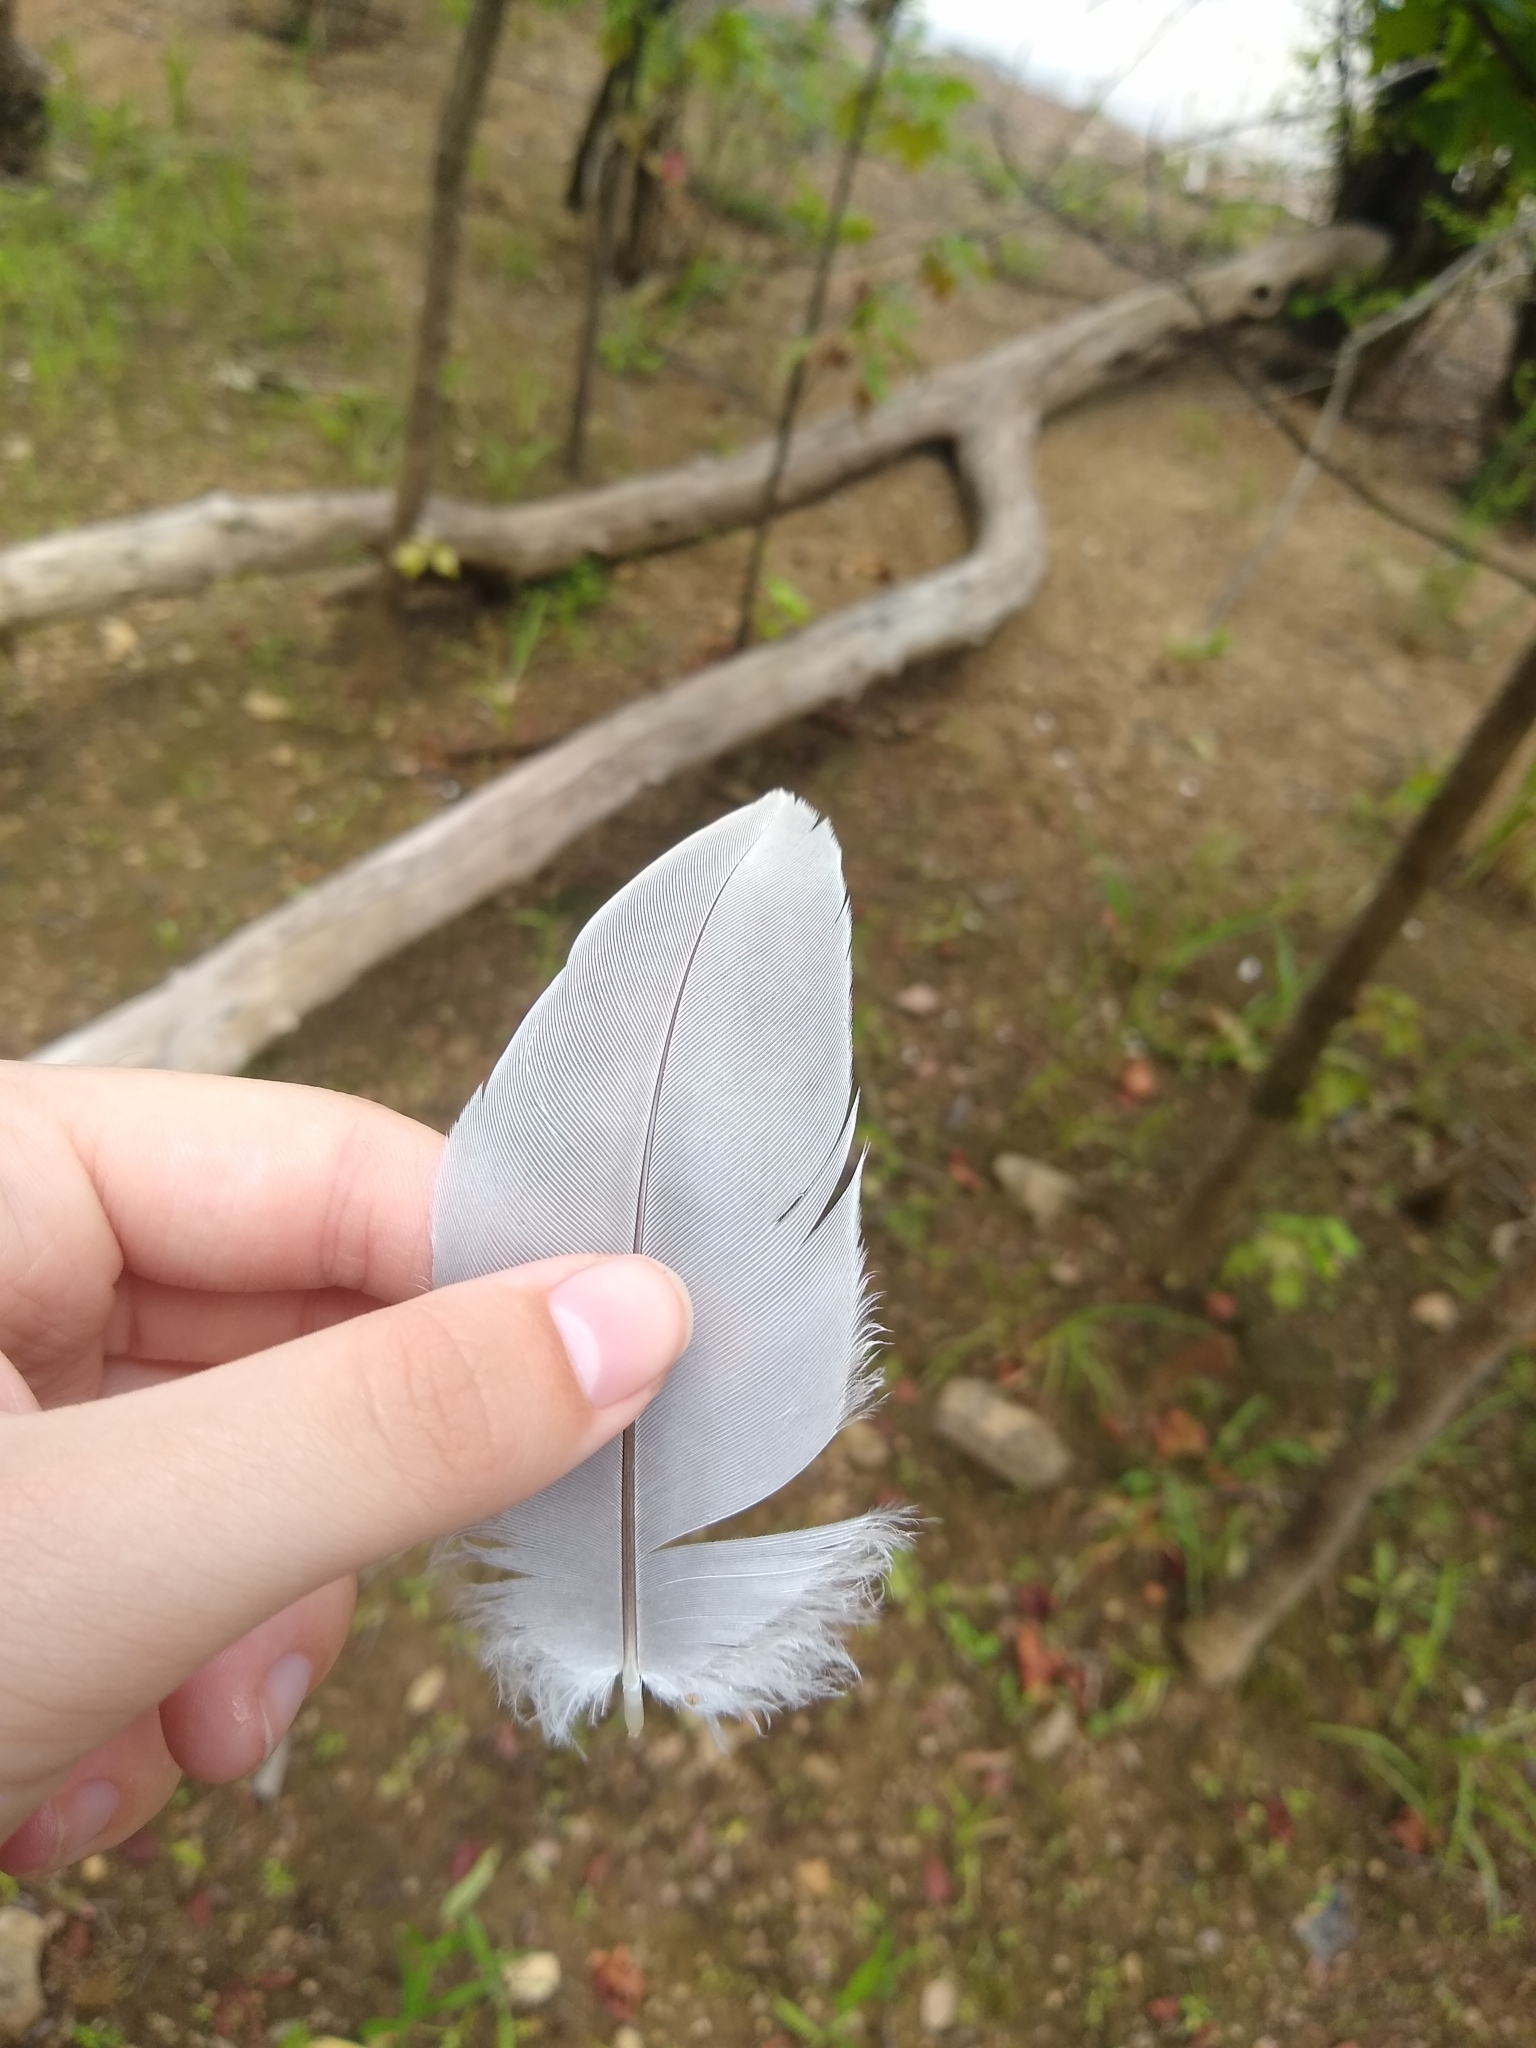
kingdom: Animalia
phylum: Chordata
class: Aves
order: Pelecaniformes
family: Ardeidae
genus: Ardea
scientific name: Ardea herodias
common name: Great blue heron
